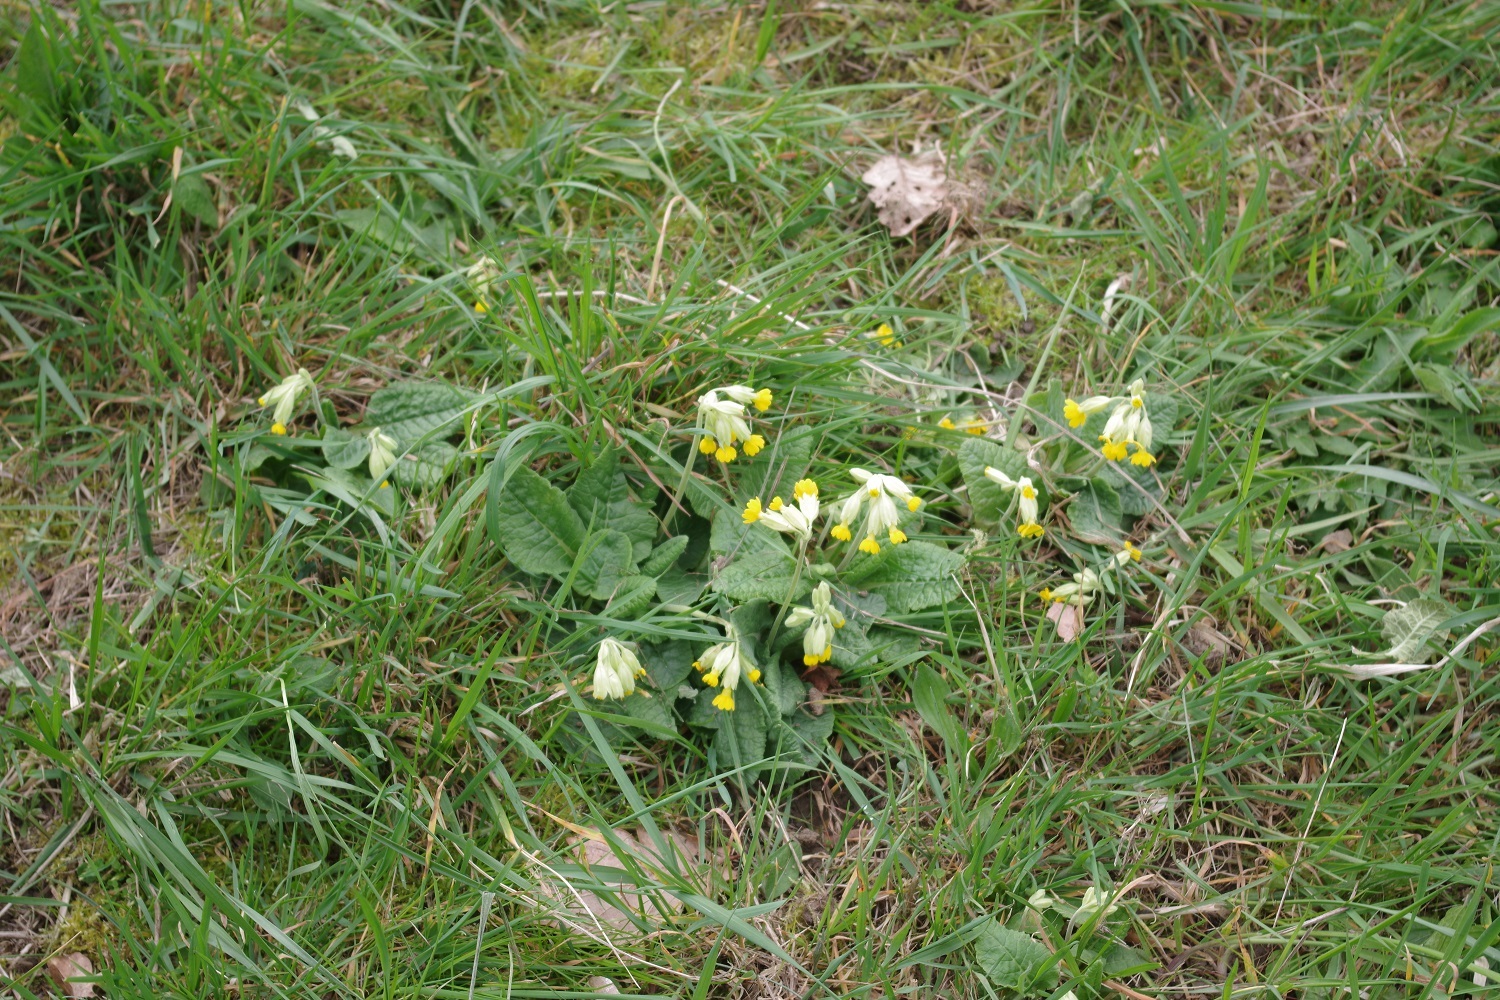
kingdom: Plantae
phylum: Tracheophyta
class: Magnoliopsida
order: Ericales
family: Primulaceae
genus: Primula
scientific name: Primula veris
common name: Cowslip
